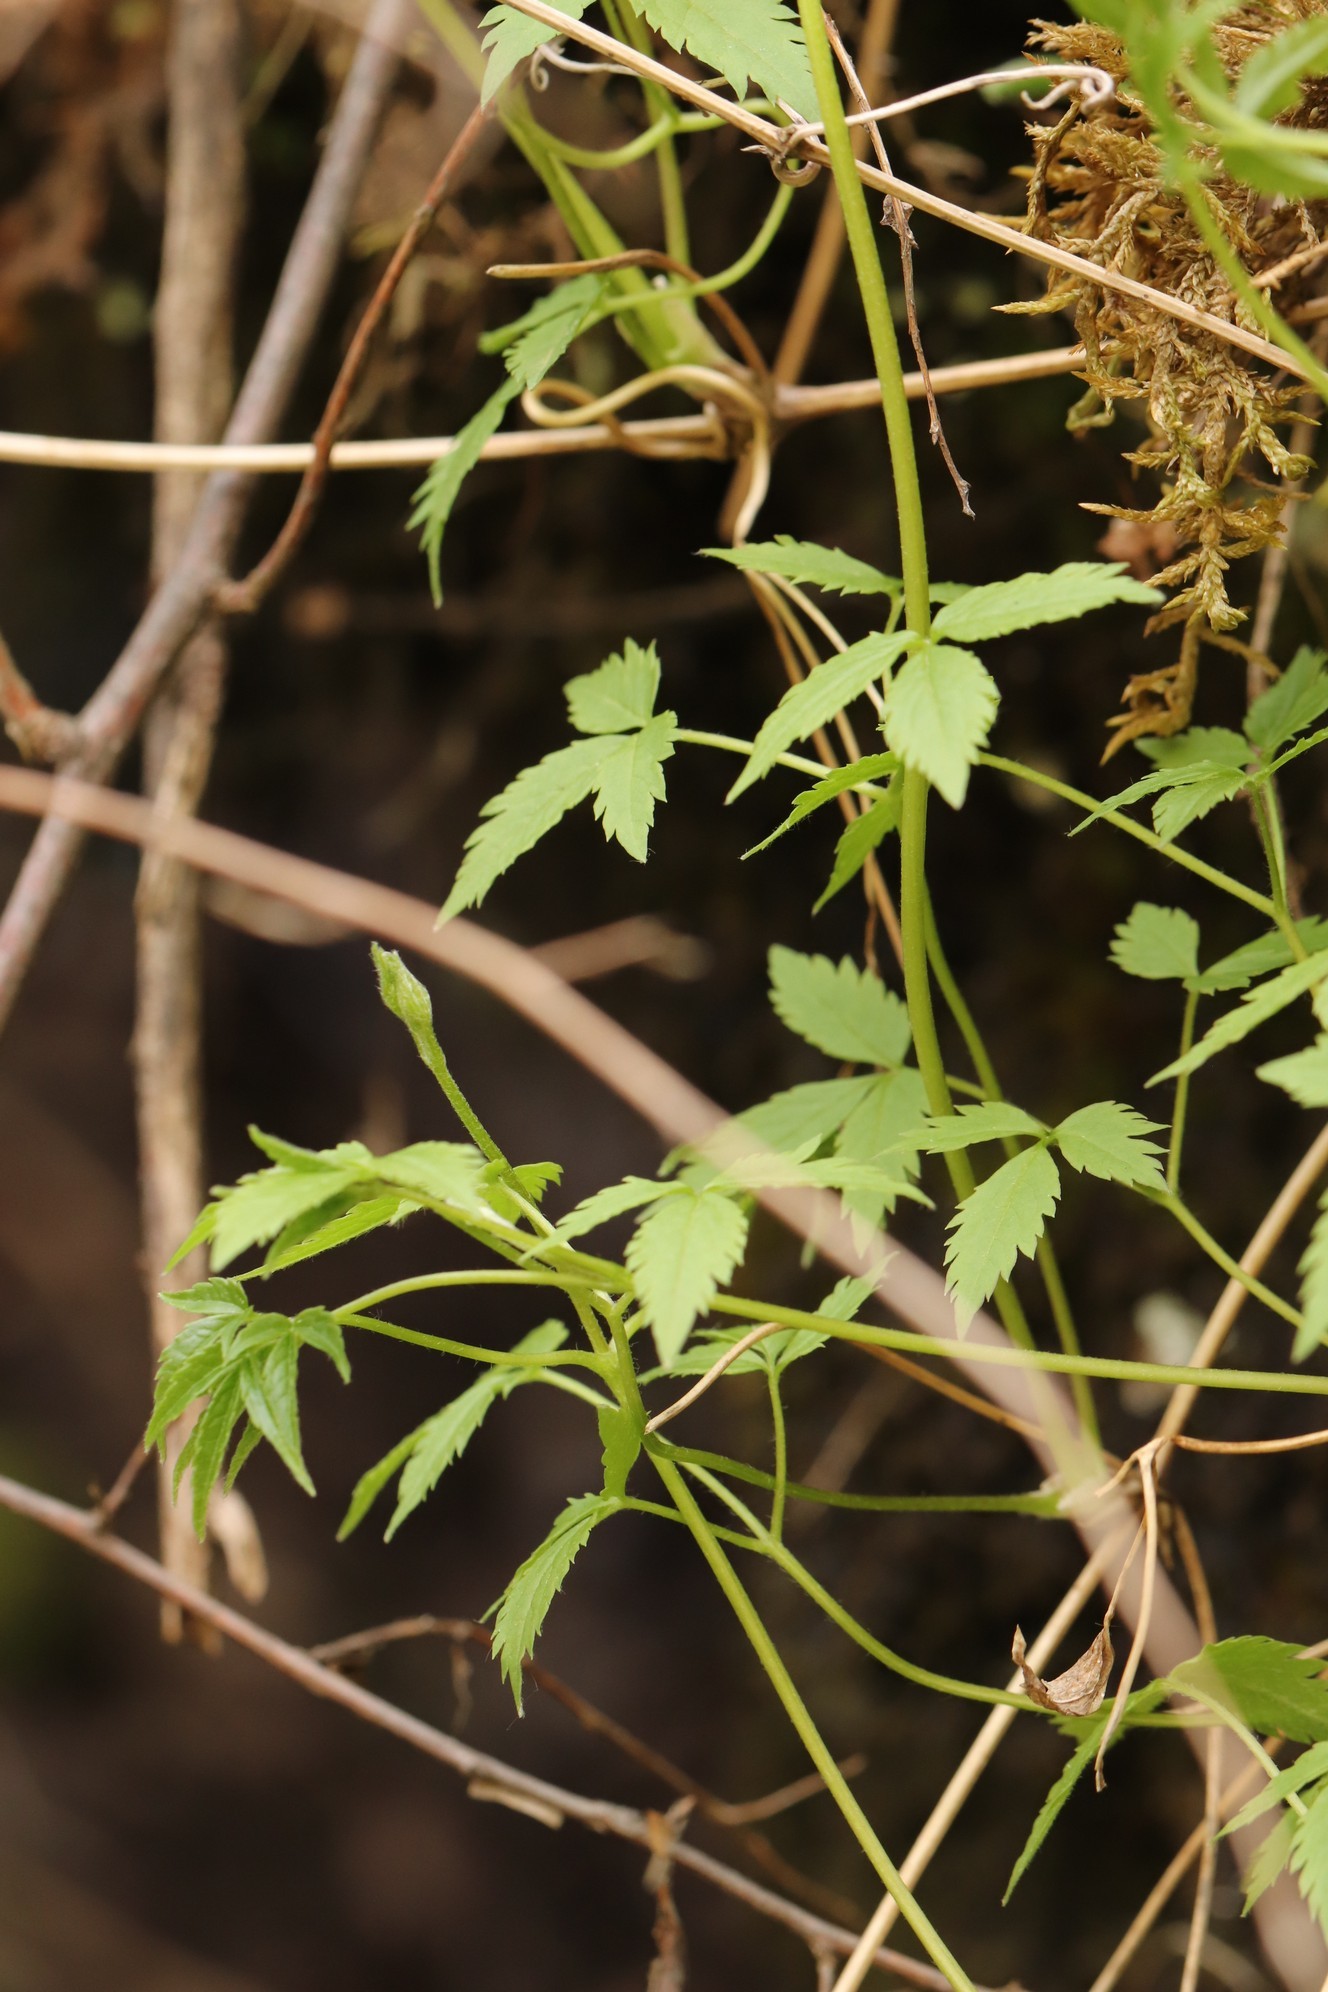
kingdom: Plantae
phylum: Tracheophyta
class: Magnoliopsida
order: Ranunculales
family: Ranunculaceae
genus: Clematis
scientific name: Clematis sibirica
